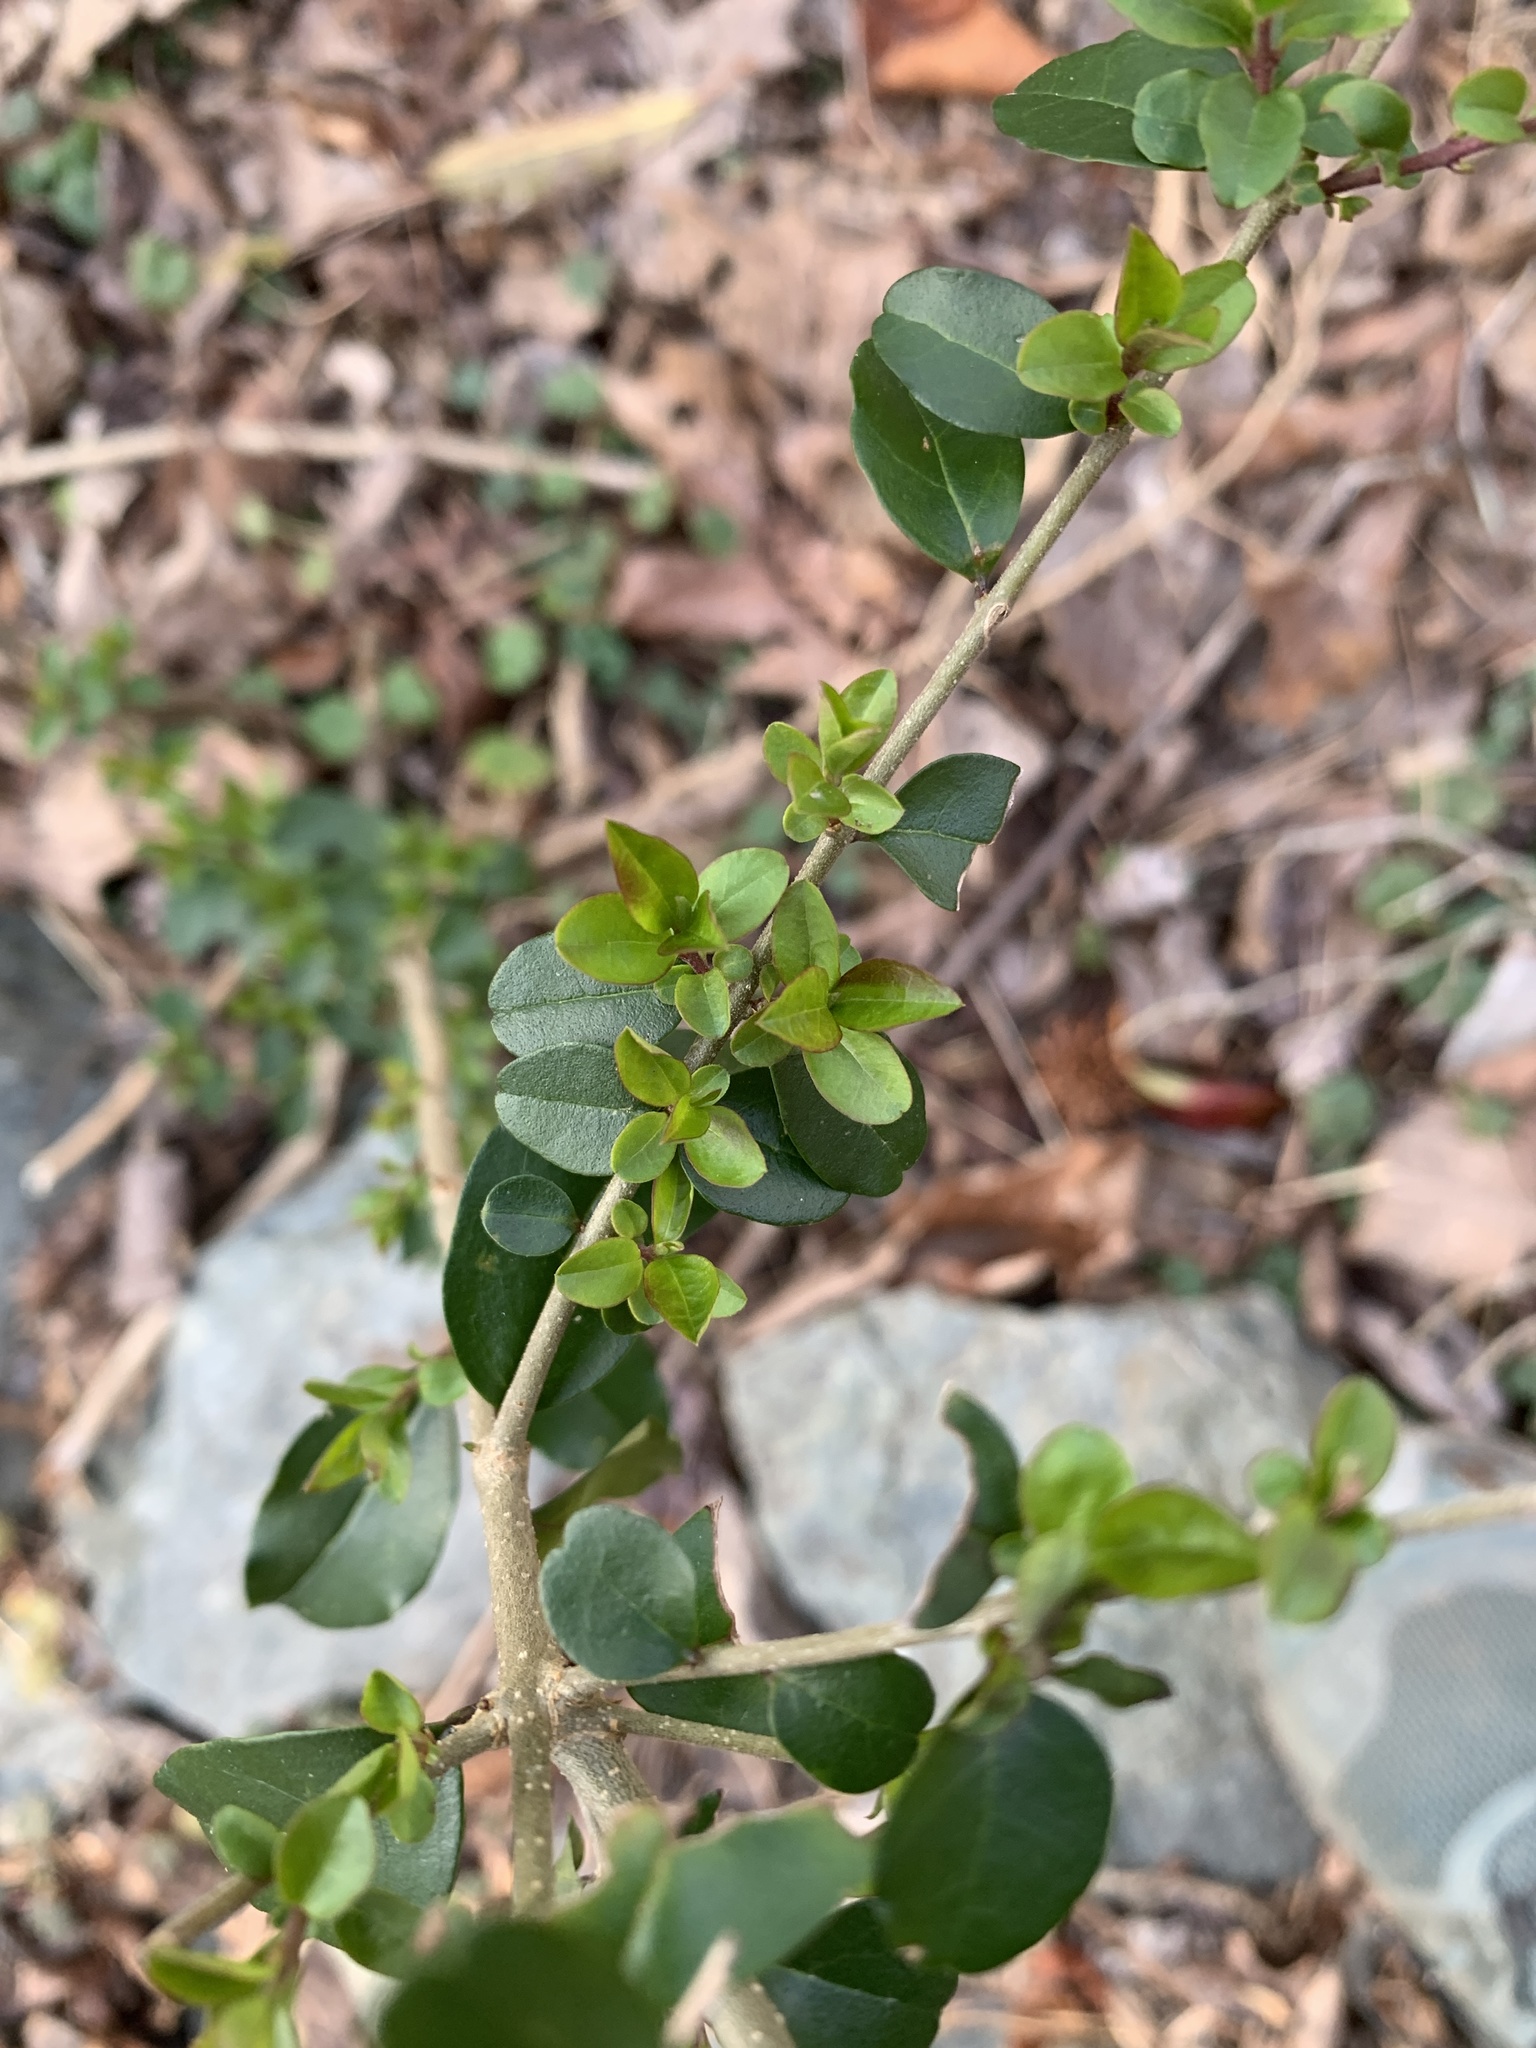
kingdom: Plantae
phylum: Tracheophyta
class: Magnoliopsida
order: Lamiales
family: Oleaceae
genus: Ligustrum
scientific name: Ligustrum sinense
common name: Chinese privet
